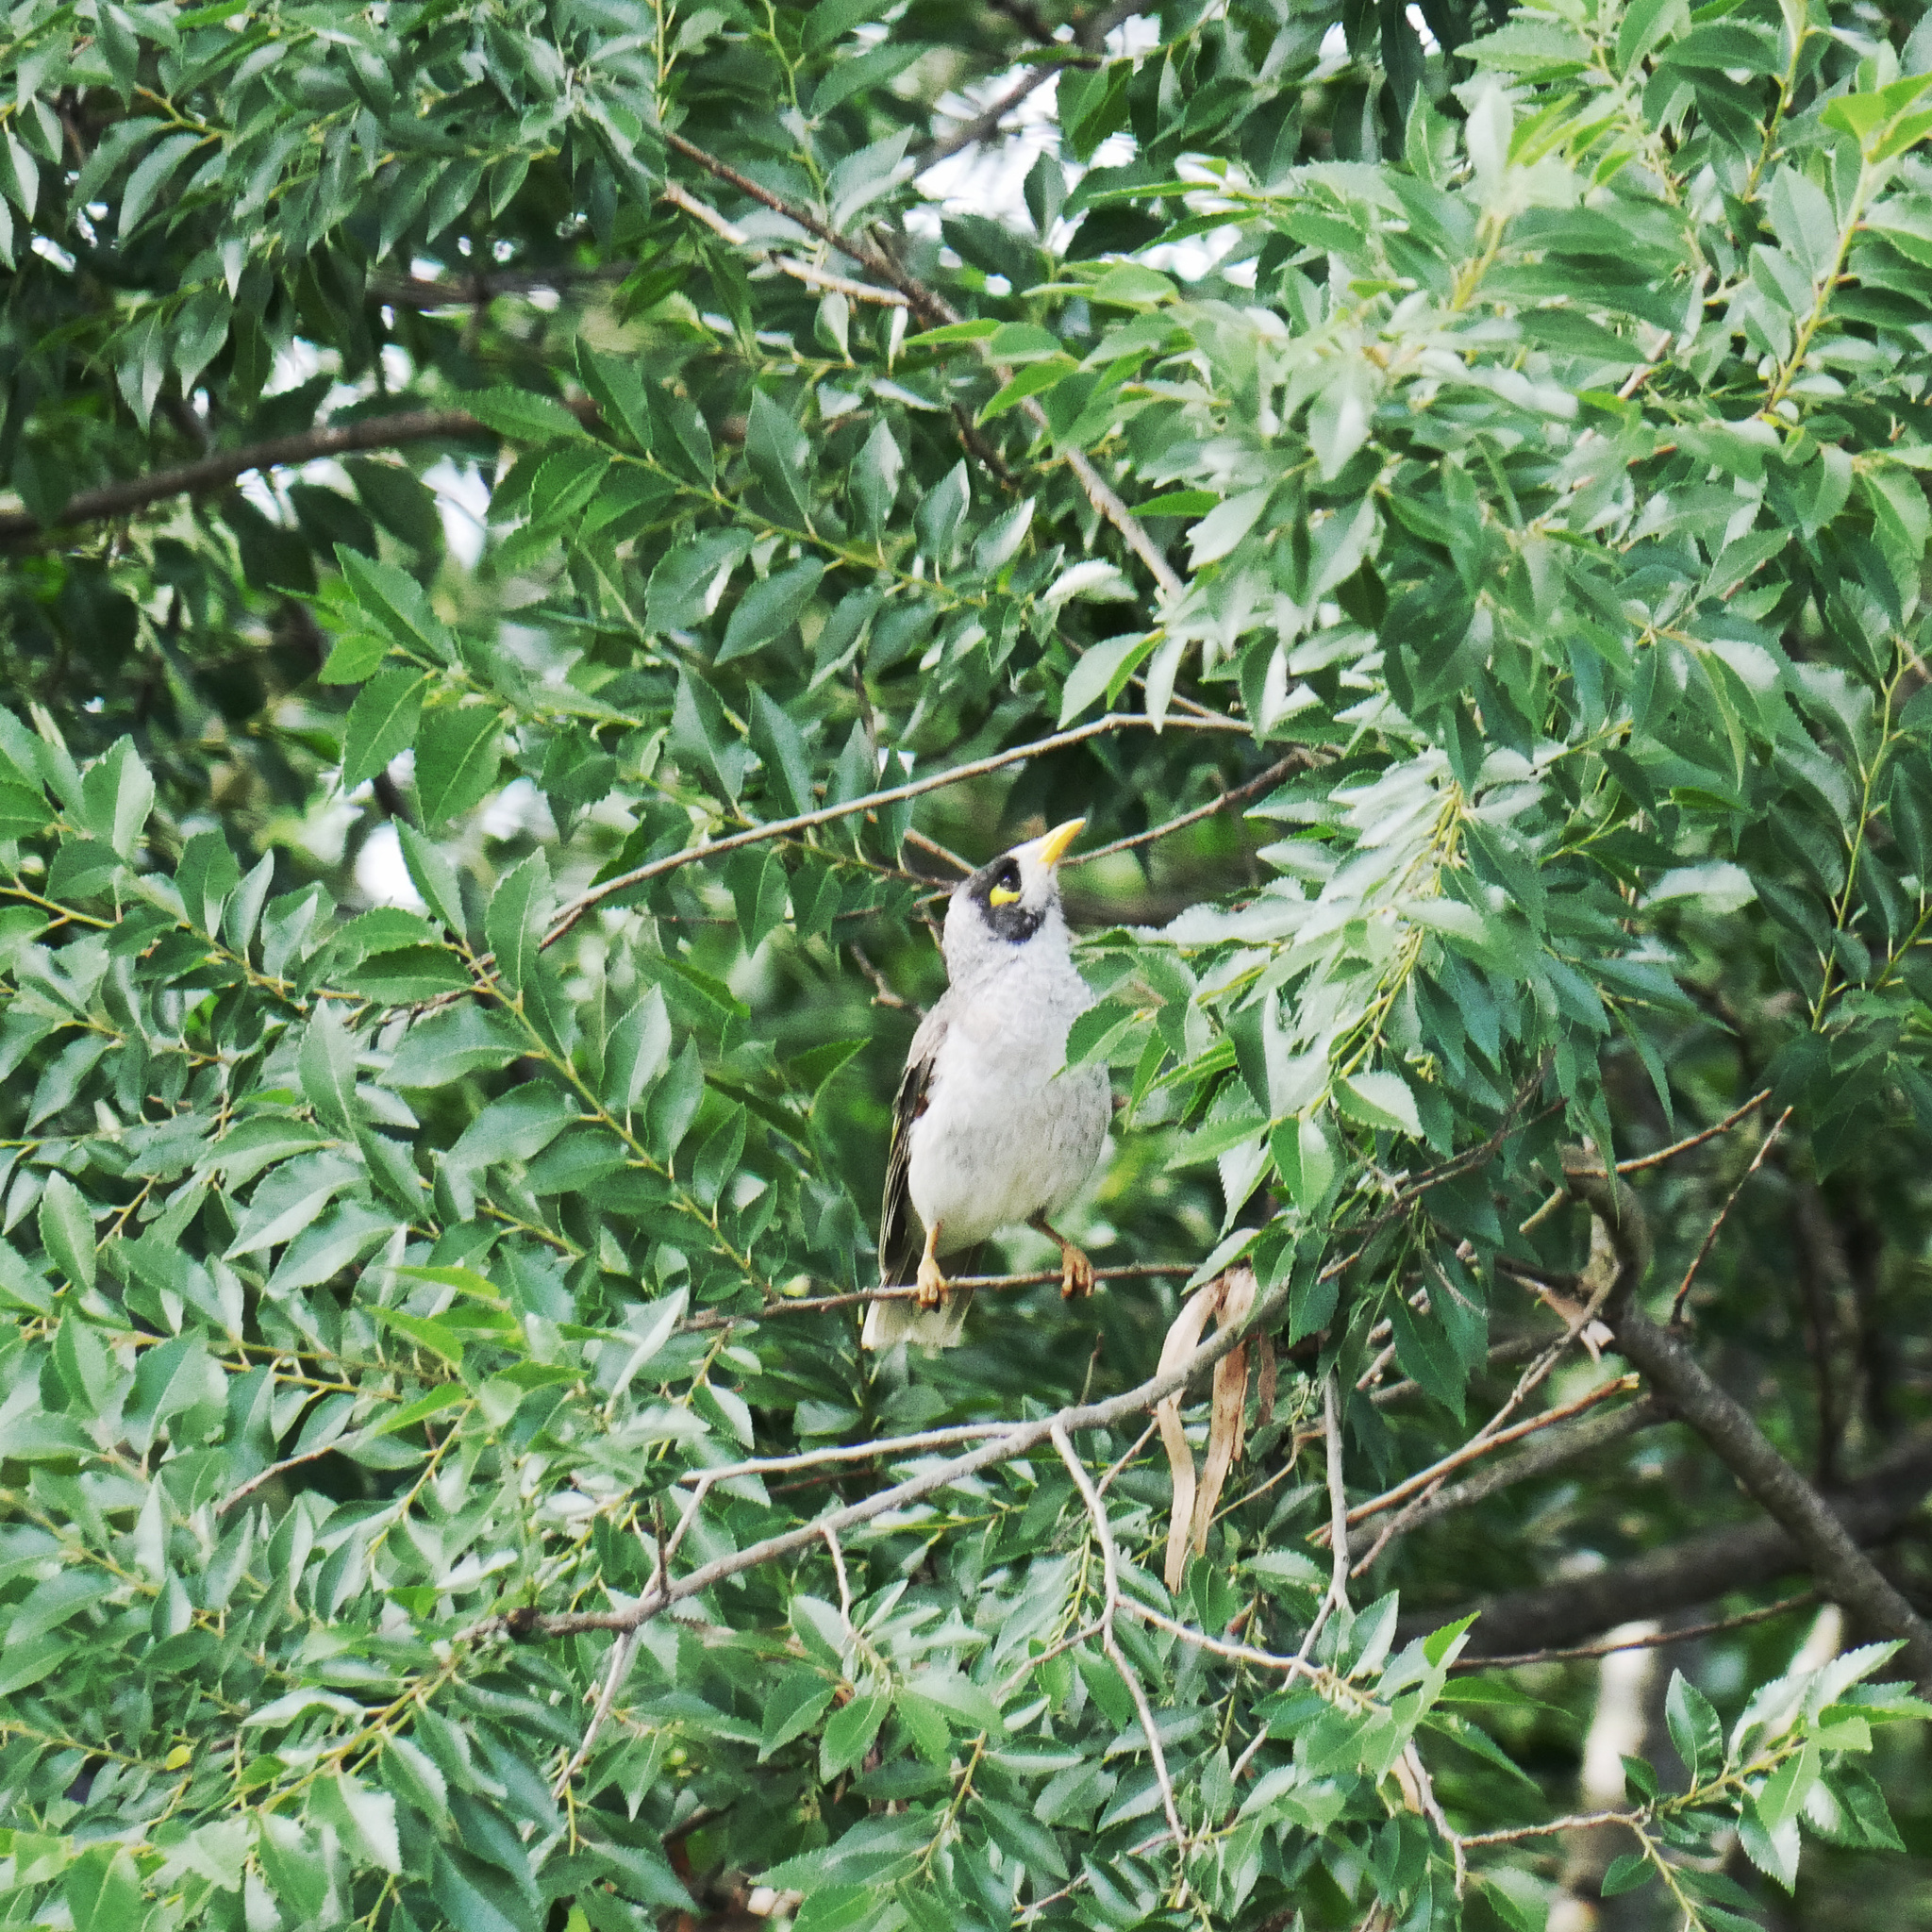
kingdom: Animalia
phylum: Chordata
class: Aves
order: Passeriformes
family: Meliphagidae
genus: Manorina
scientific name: Manorina melanocephala
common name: Noisy miner
